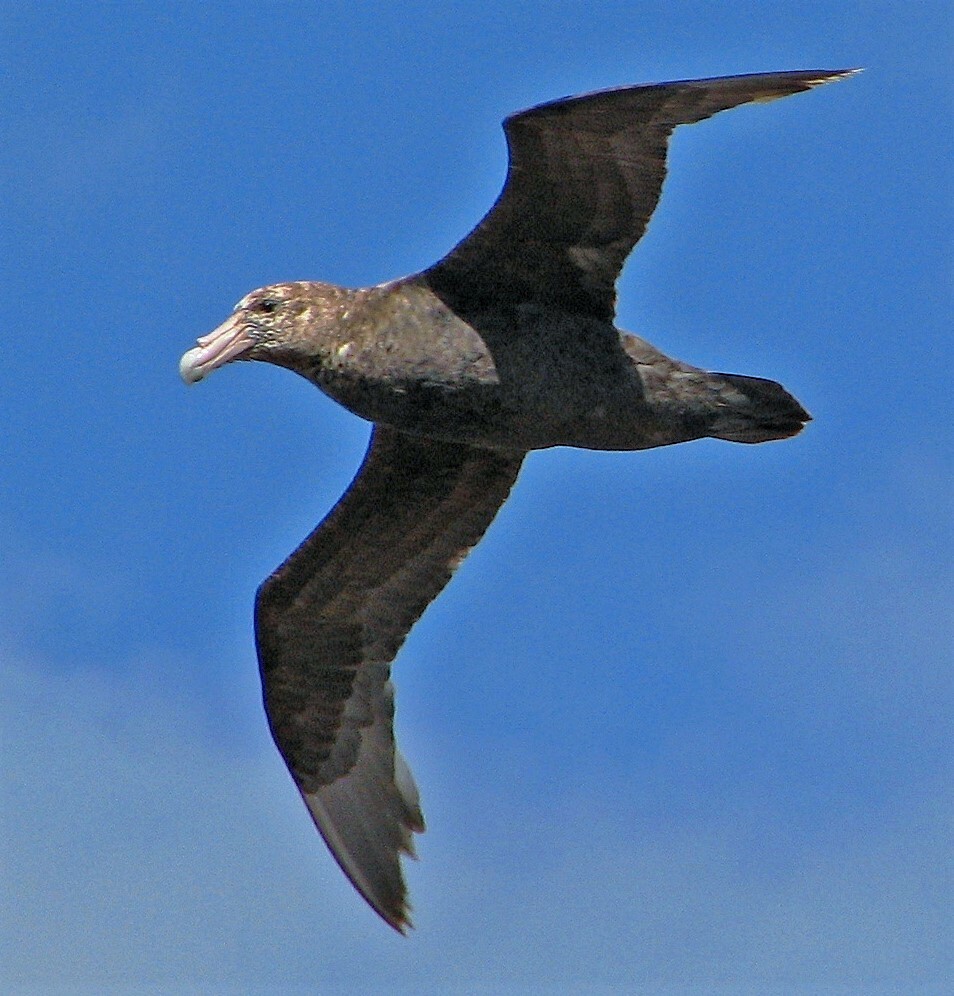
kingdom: Animalia
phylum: Chordata
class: Aves
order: Procellariiformes
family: Procellariidae
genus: Macronectes
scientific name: Macronectes giganteus
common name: Southern giant petrel
